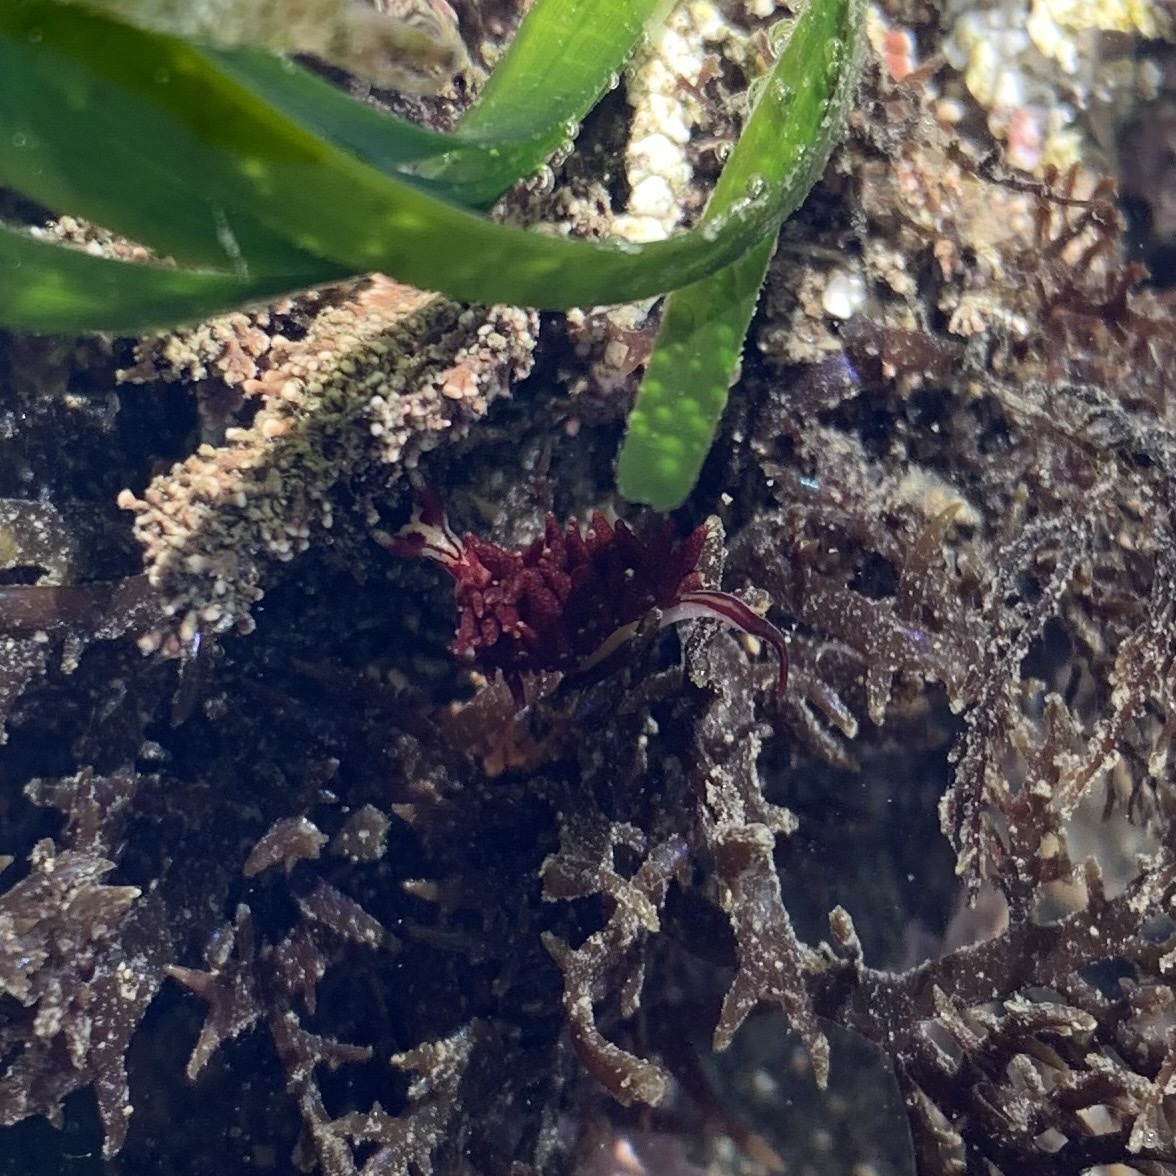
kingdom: Animalia
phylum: Mollusca
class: Gastropoda
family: Hermaeidae
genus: Hermaea
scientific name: Hermaea oliviae
